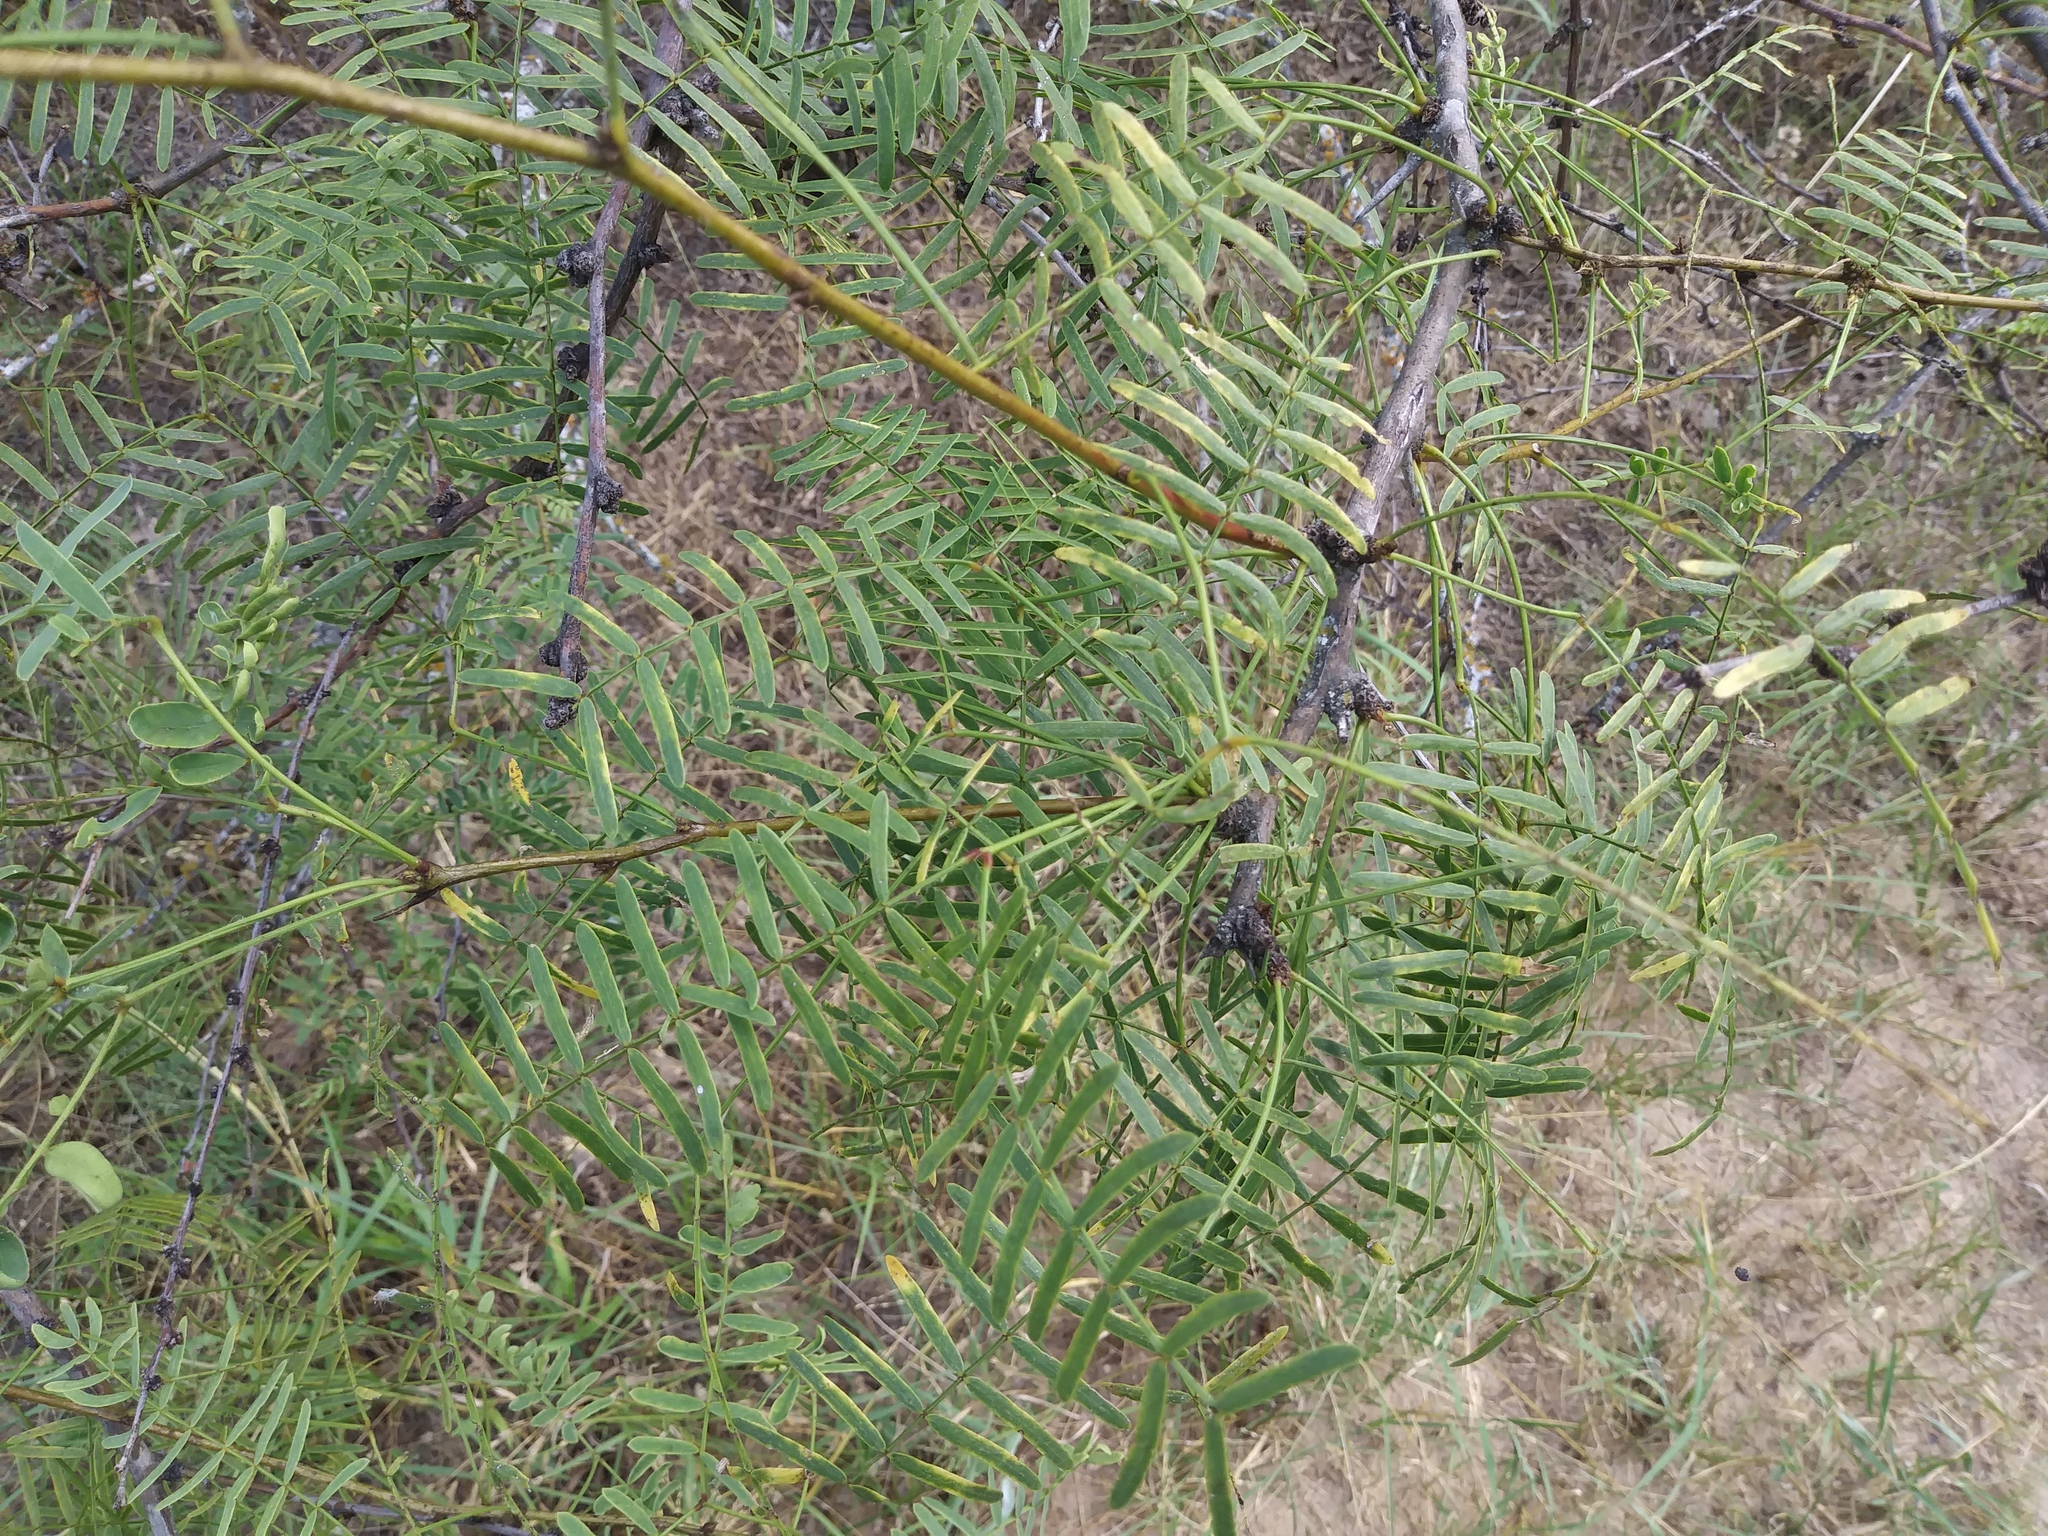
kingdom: Plantae
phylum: Tracheophyta
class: Magnoliopsida
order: Fabales
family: Fabaceae
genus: Prosopis
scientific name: Prosopis glandulosa
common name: Honey mesquite
